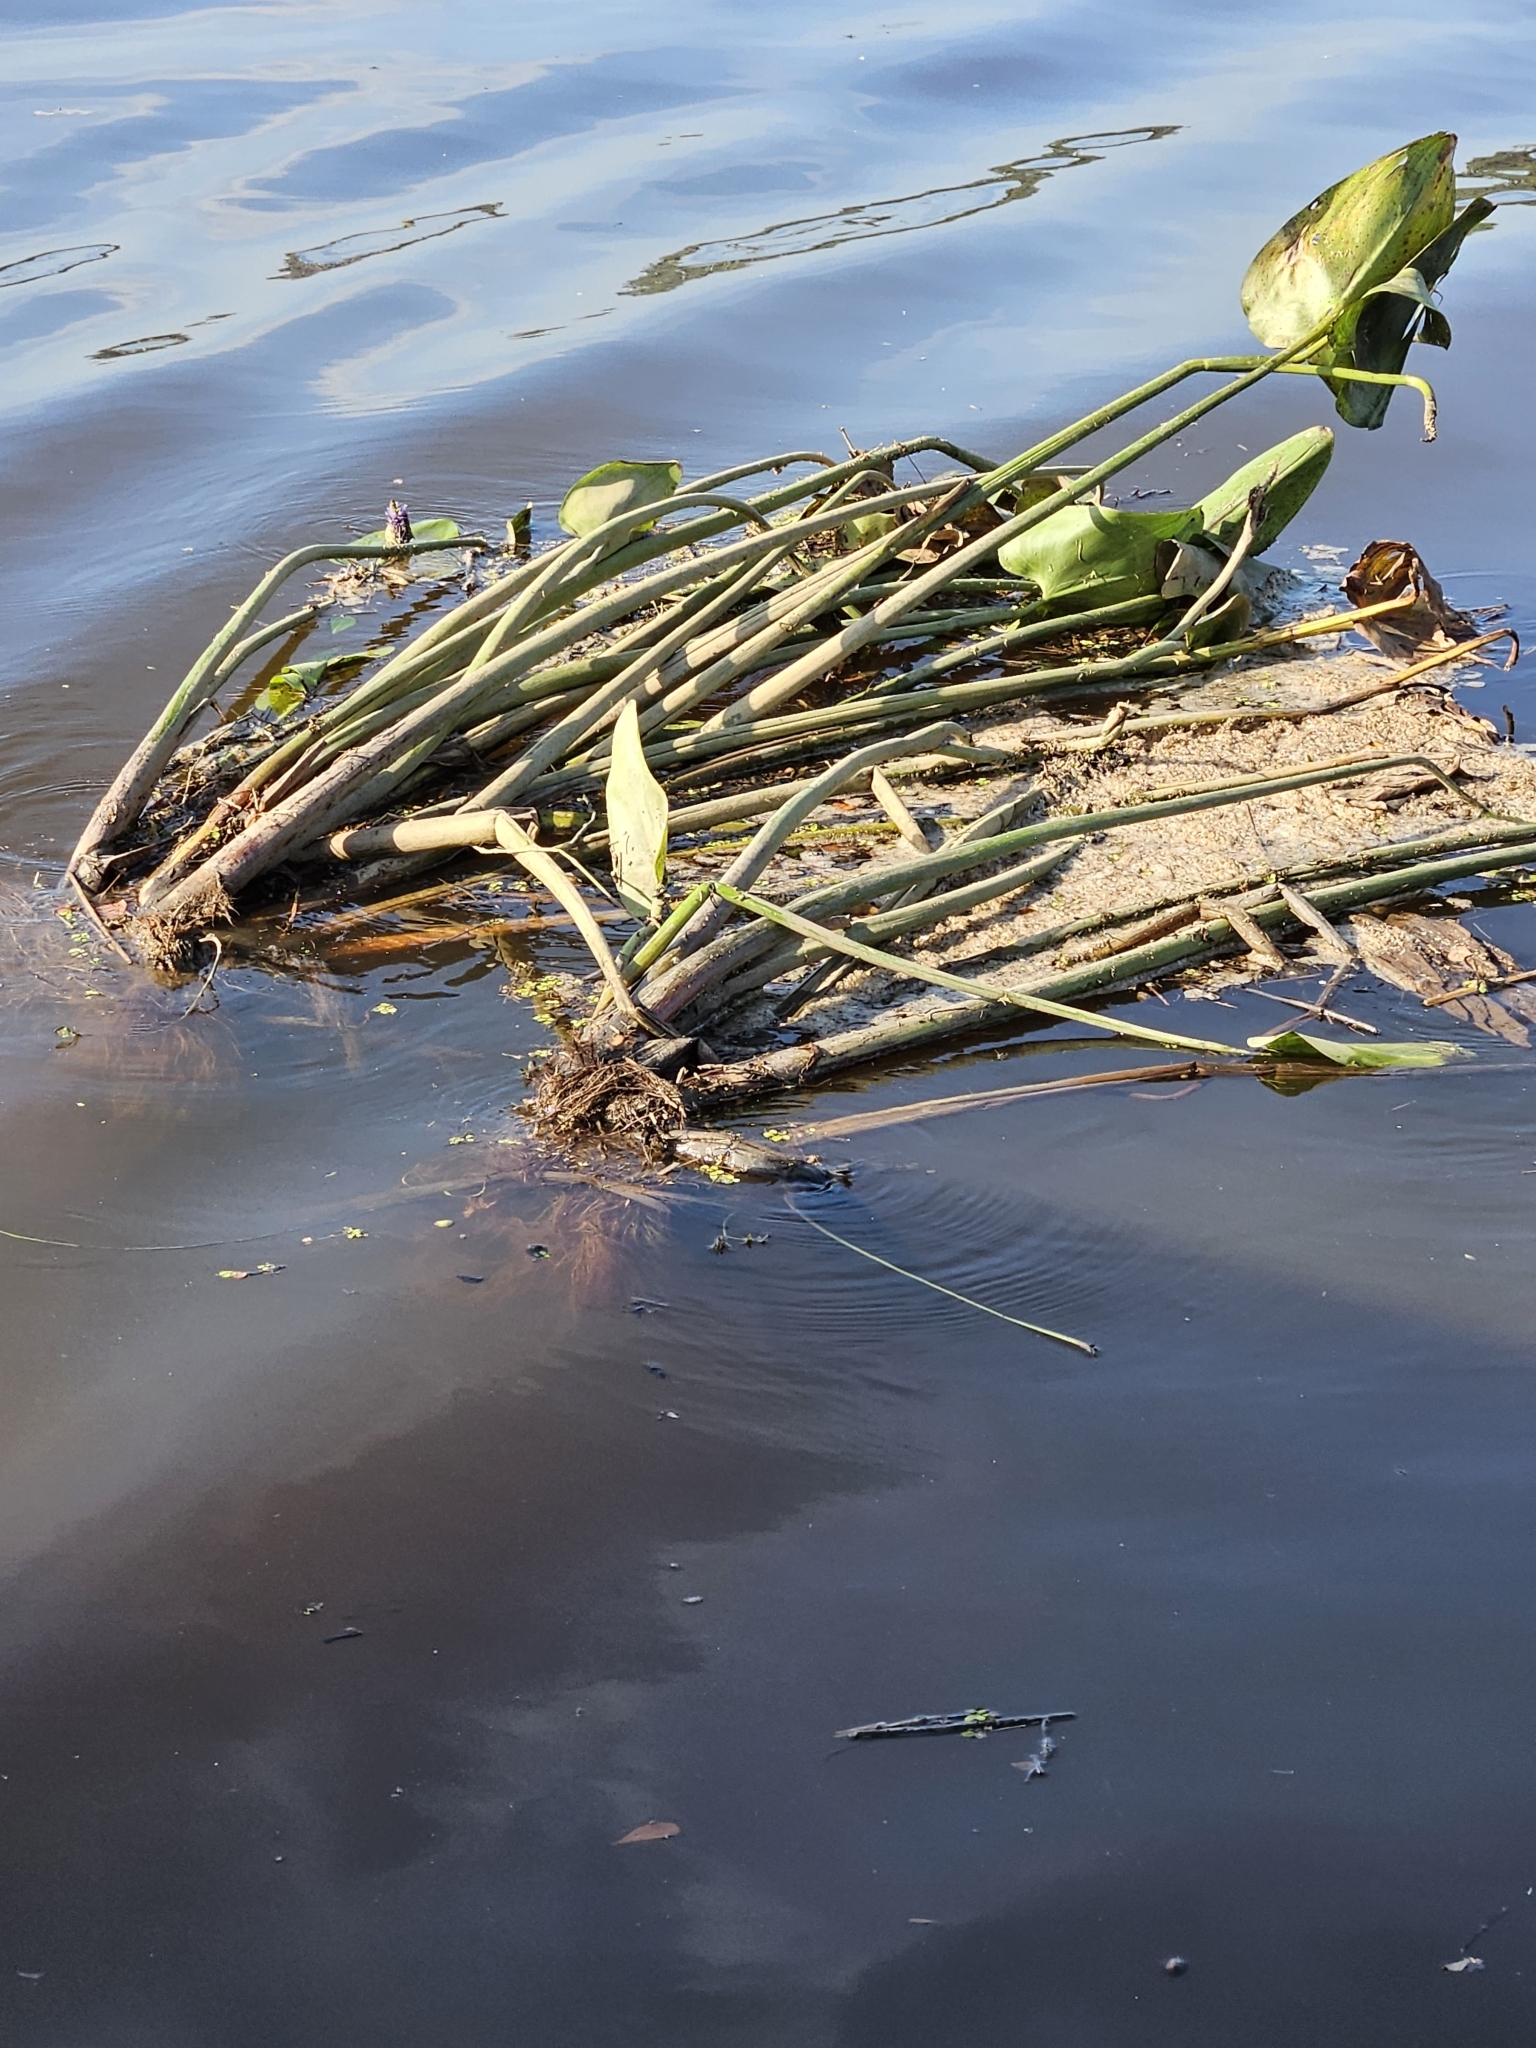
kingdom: Plantae
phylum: Tracheophyta
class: Liliopsida
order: Commelinales
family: Pontederiaceae
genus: Pontederia
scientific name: Pontederia cordata
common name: Pickerelweed
